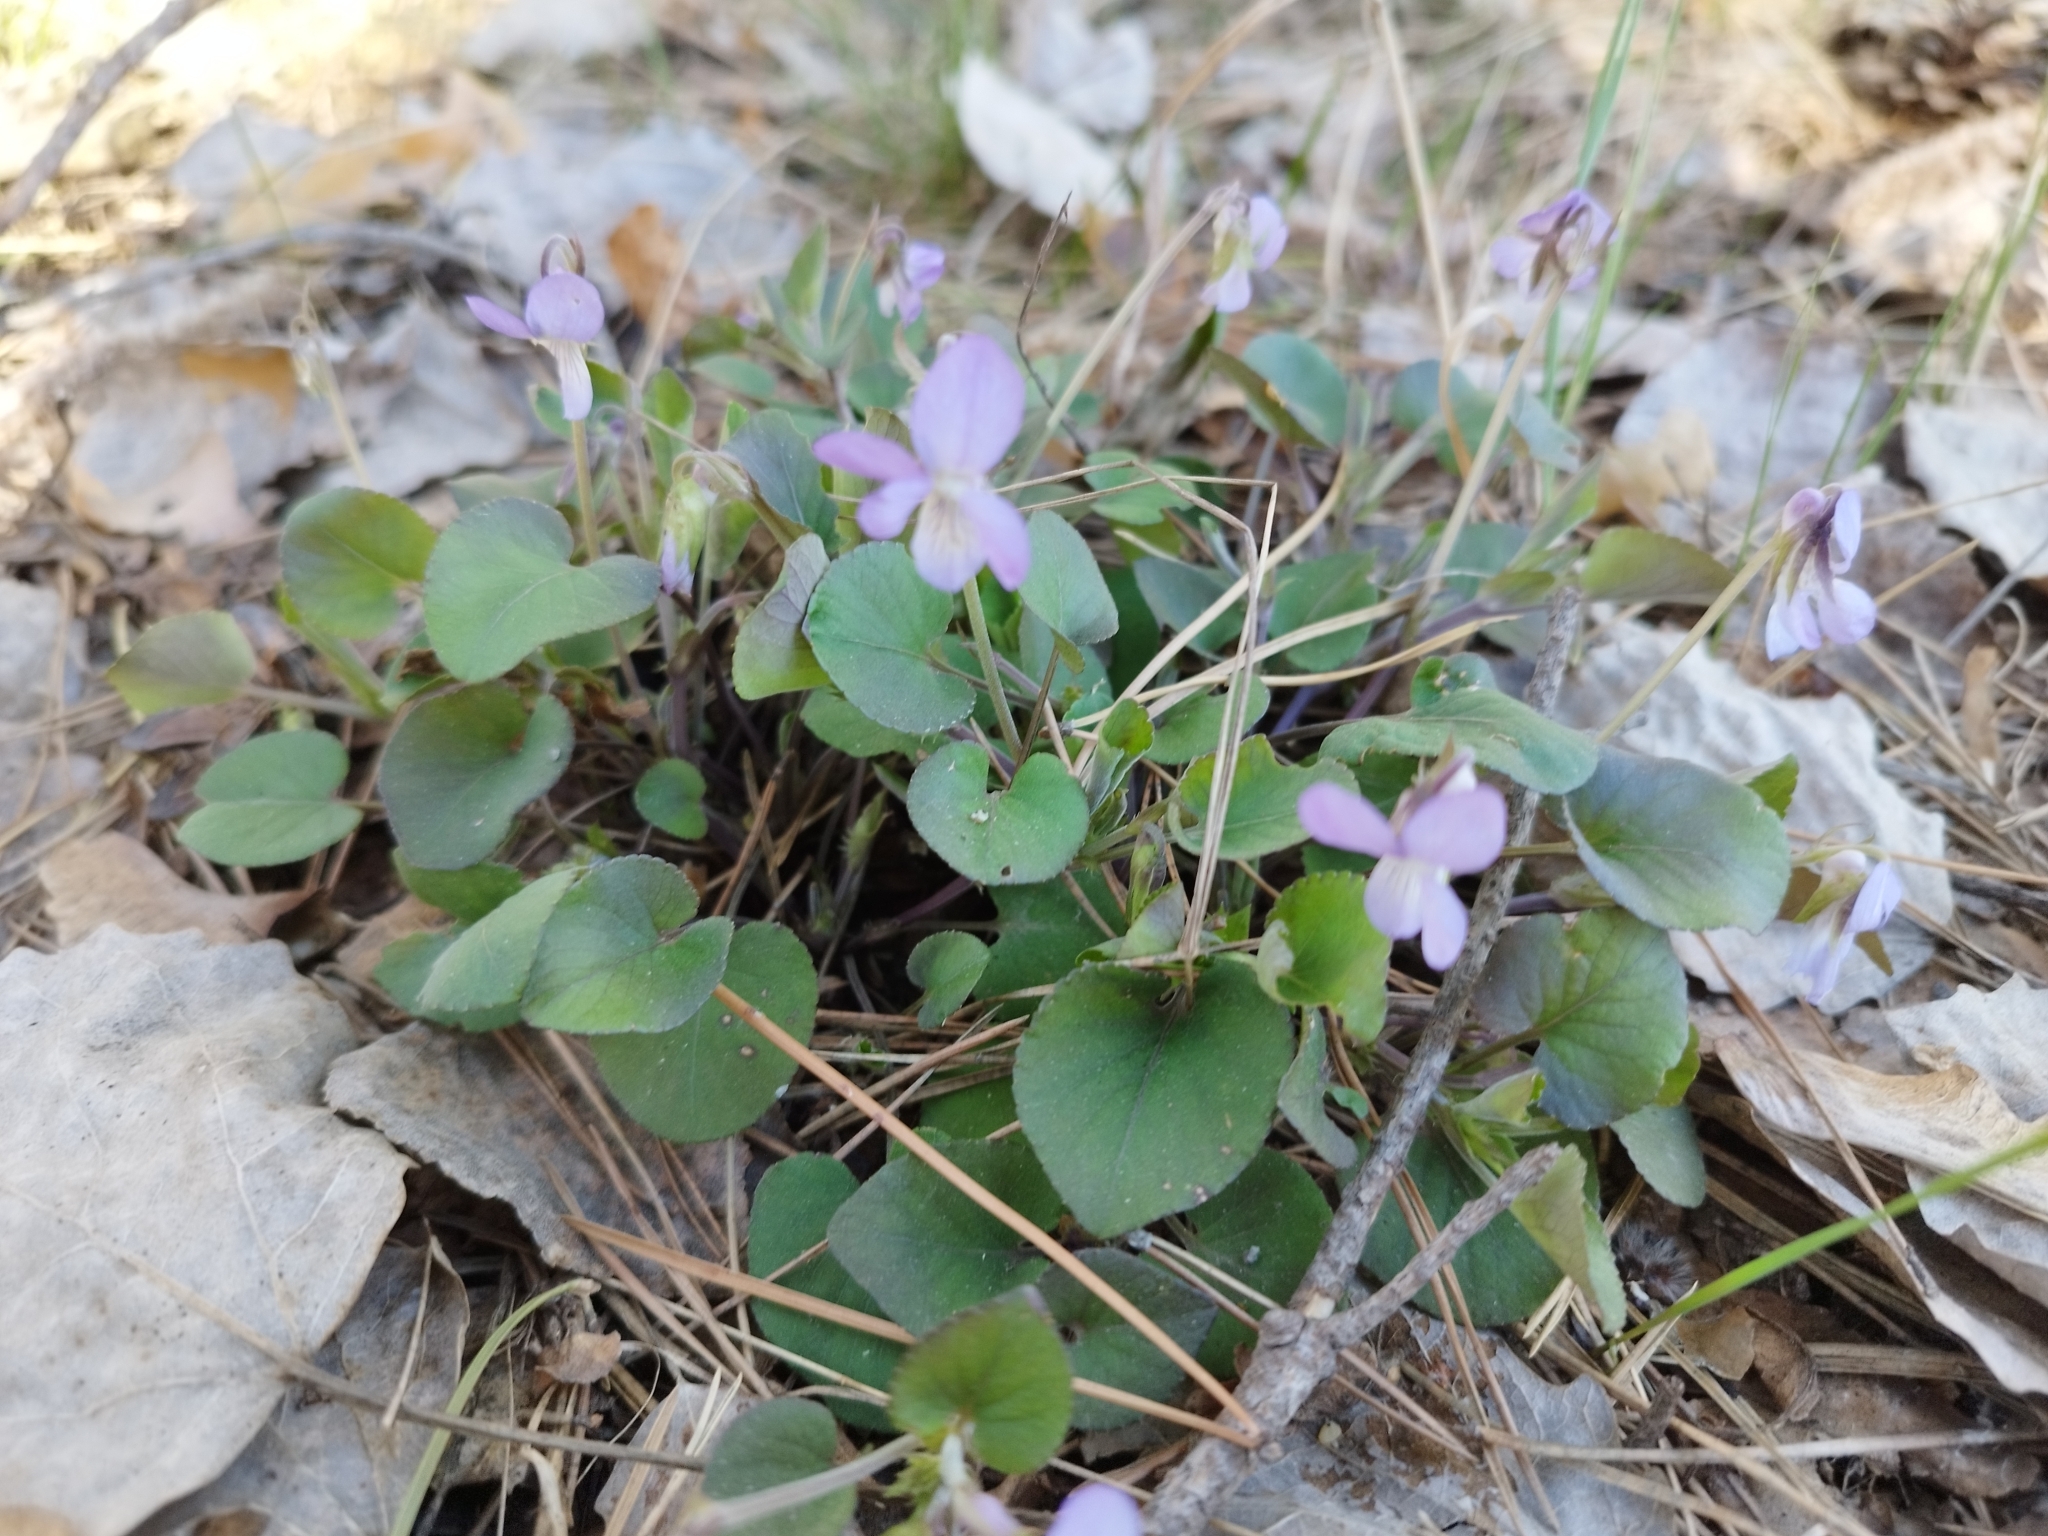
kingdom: Plantae
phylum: Tracheophyta
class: Magnoliopsida
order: Malpighiales
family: Violaceae
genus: Viola
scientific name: Viola rupestris
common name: Teesdale violet
